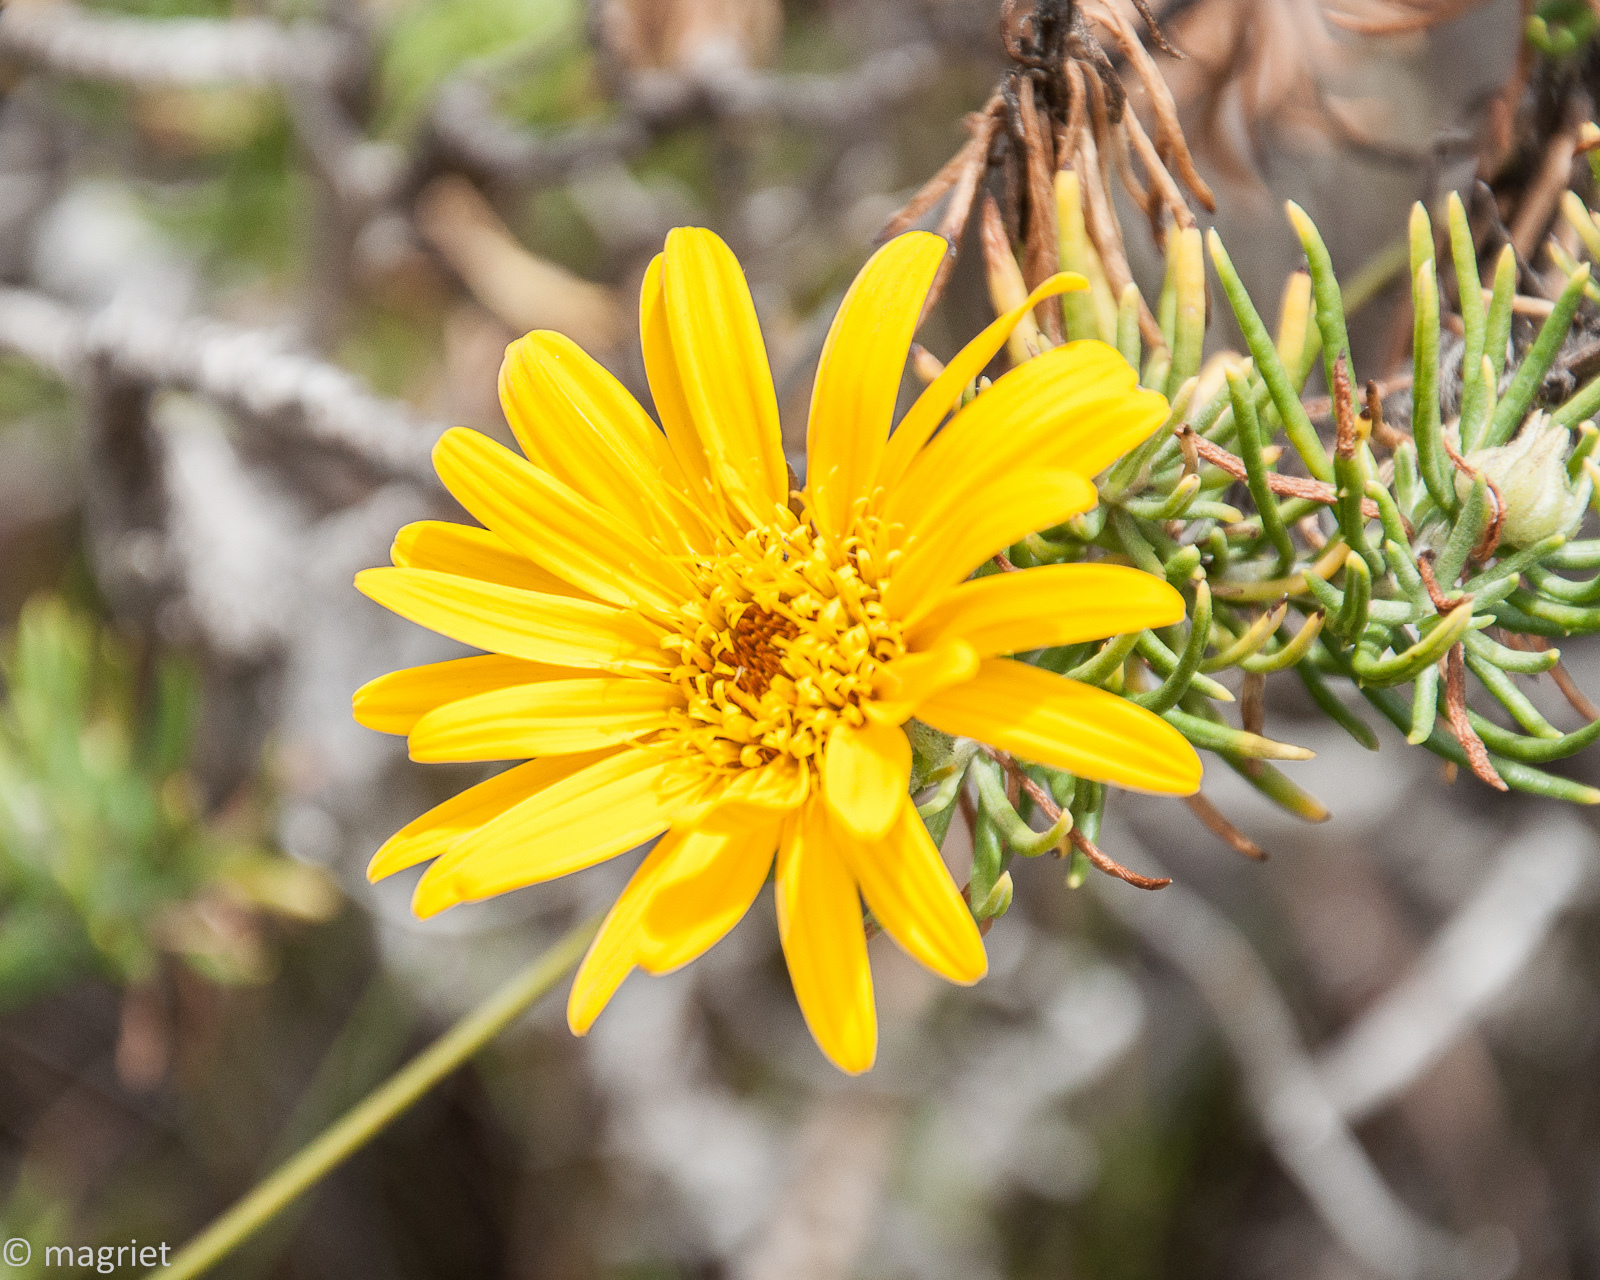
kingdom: Plantae
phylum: Tracheophyta
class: Magnoliopsida
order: Asterales
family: Asteraceae
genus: Heterolepis
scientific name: Heterolepis aliena
